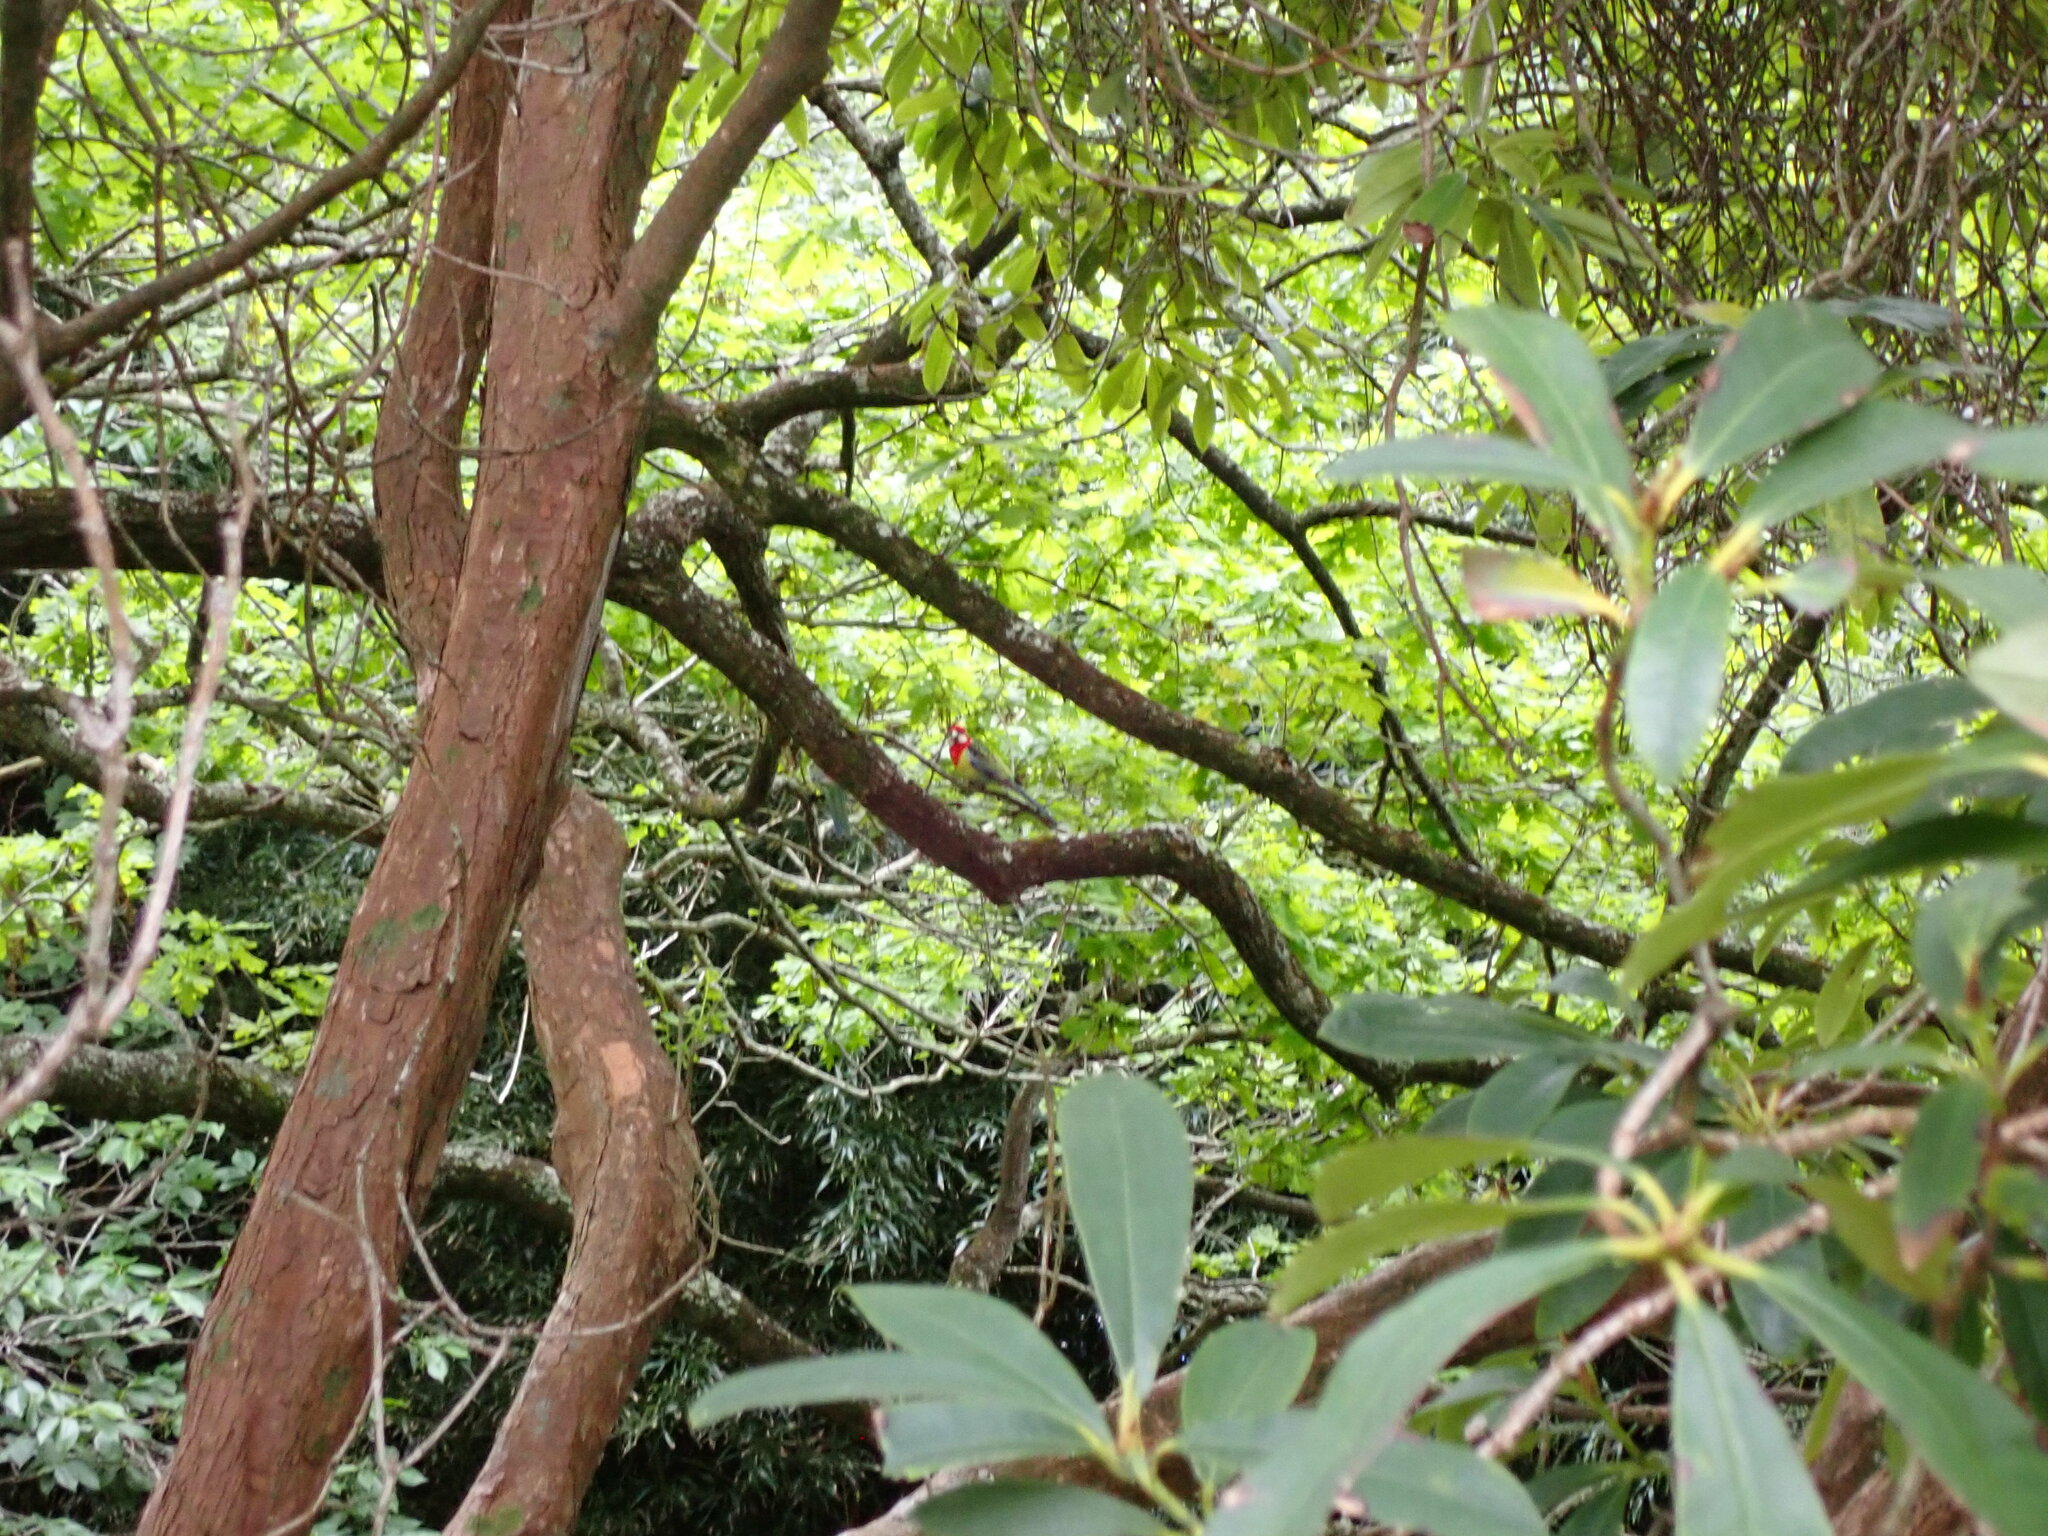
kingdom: Animalia
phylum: Chordata
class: Aves
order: Psittaciformes
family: Psittacidae
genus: Platycercus
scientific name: Platycercus eximius
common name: Eastern rosella
